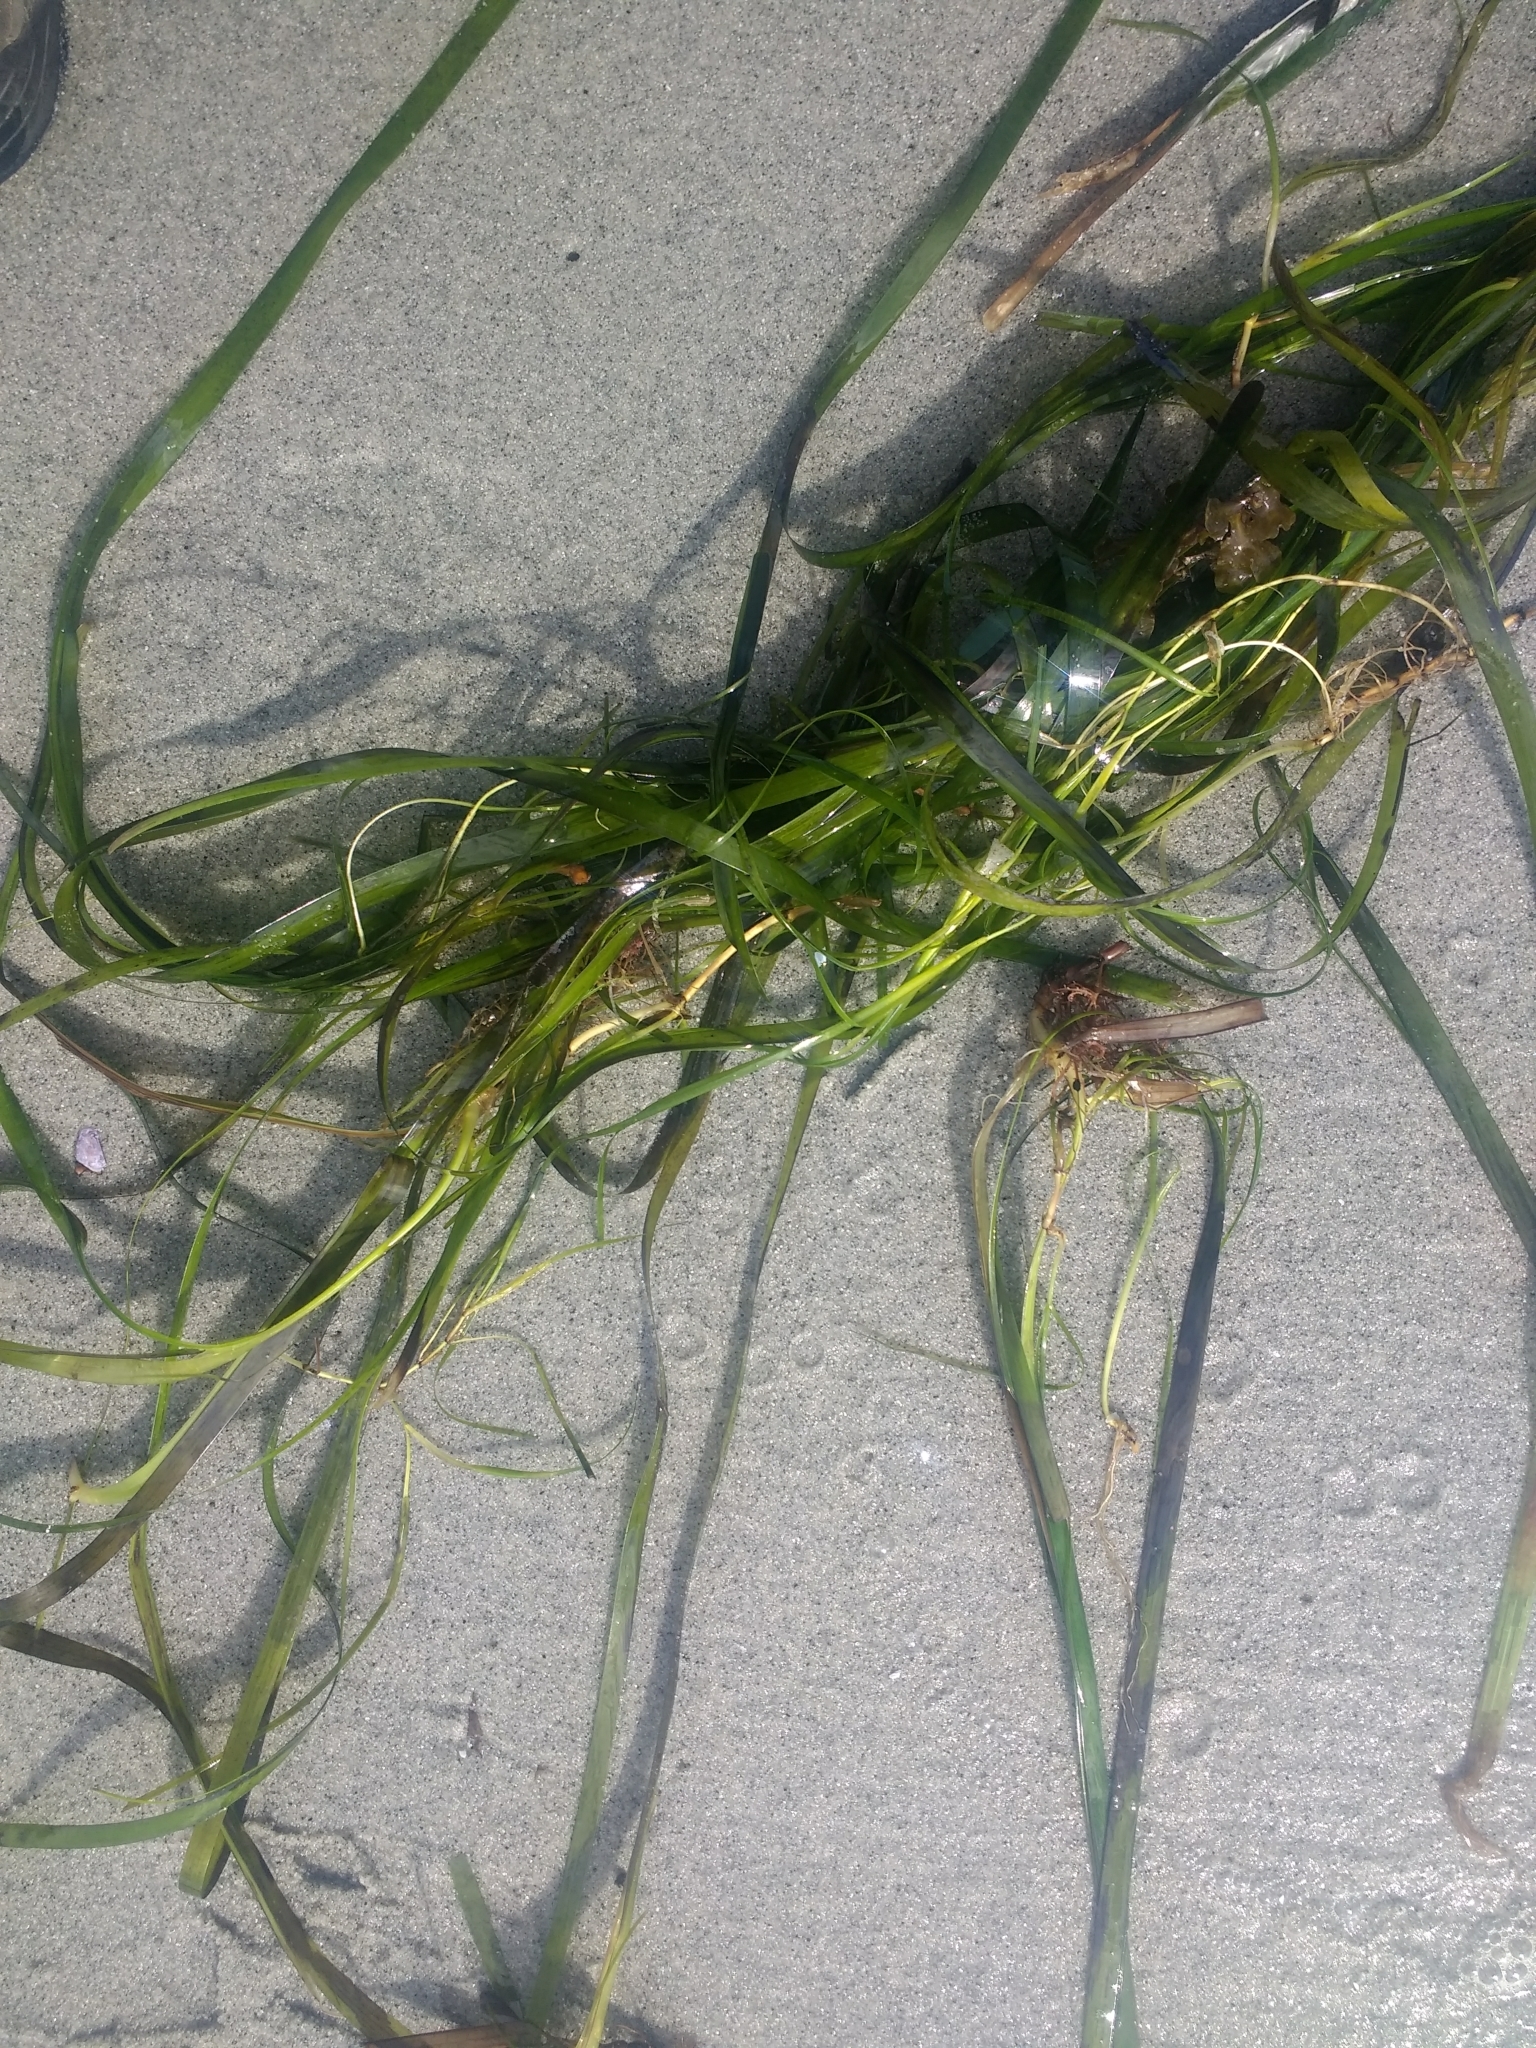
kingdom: Plantae
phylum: Tracheophyta
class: Liliopsida
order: Alismatales
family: Zosteraceae
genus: Zostera
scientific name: Zostera marina
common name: Eelgrass
